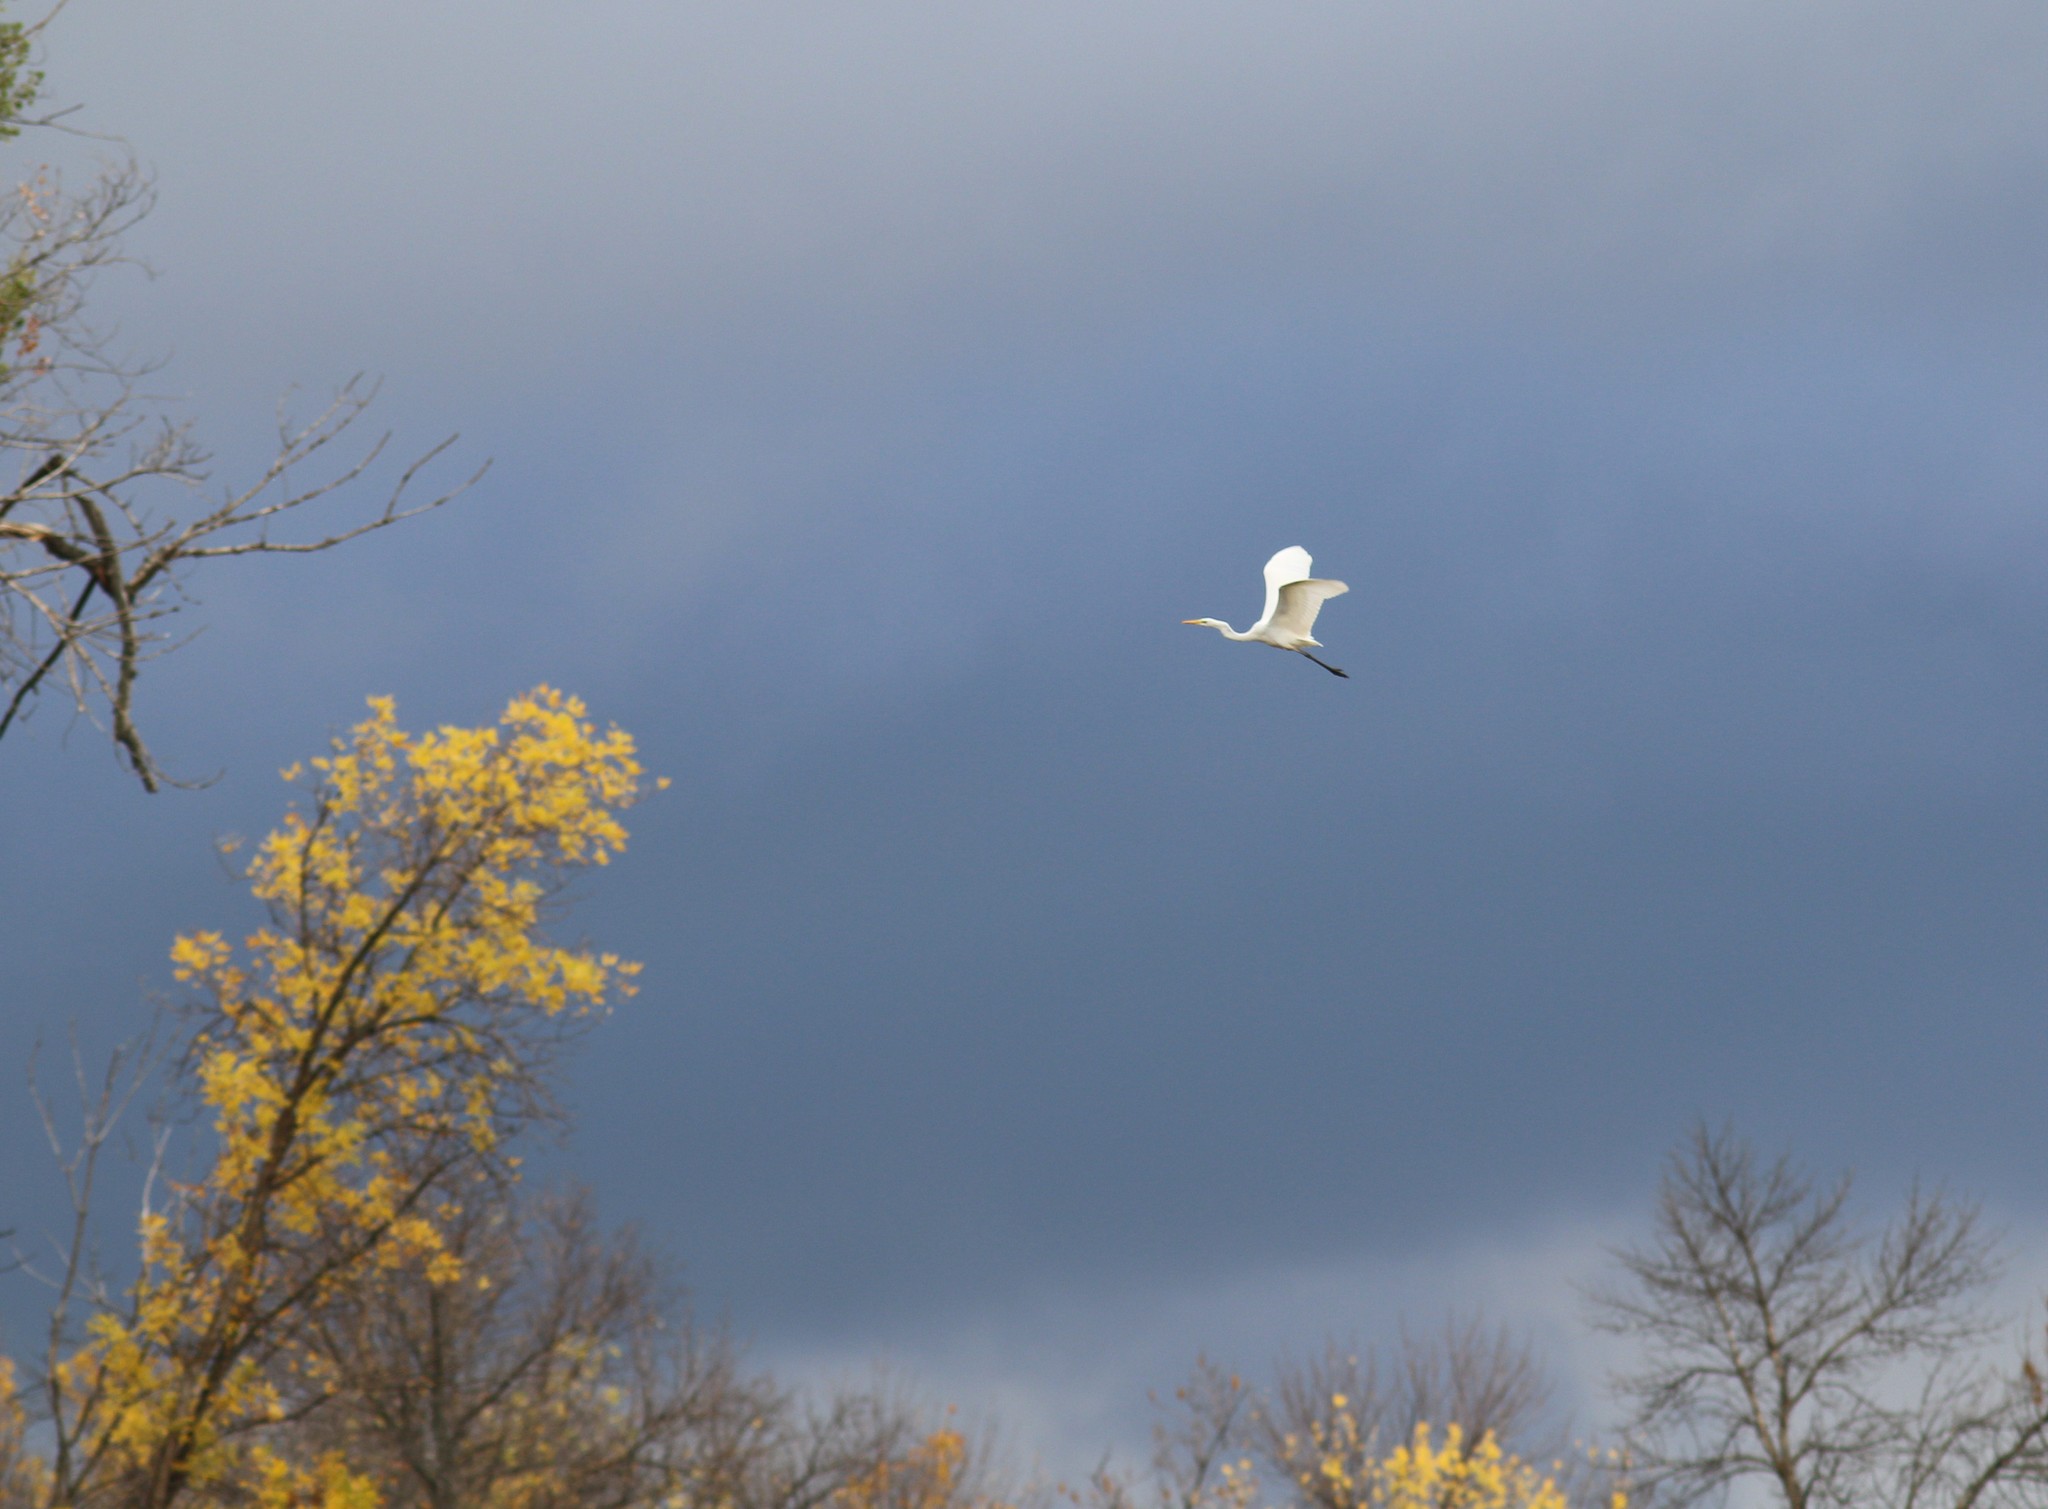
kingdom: Animalia
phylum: Chordata
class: Aves
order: Pelecaniformes
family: Ardeidae
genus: Ardea
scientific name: Ardea alba
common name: Great egret
